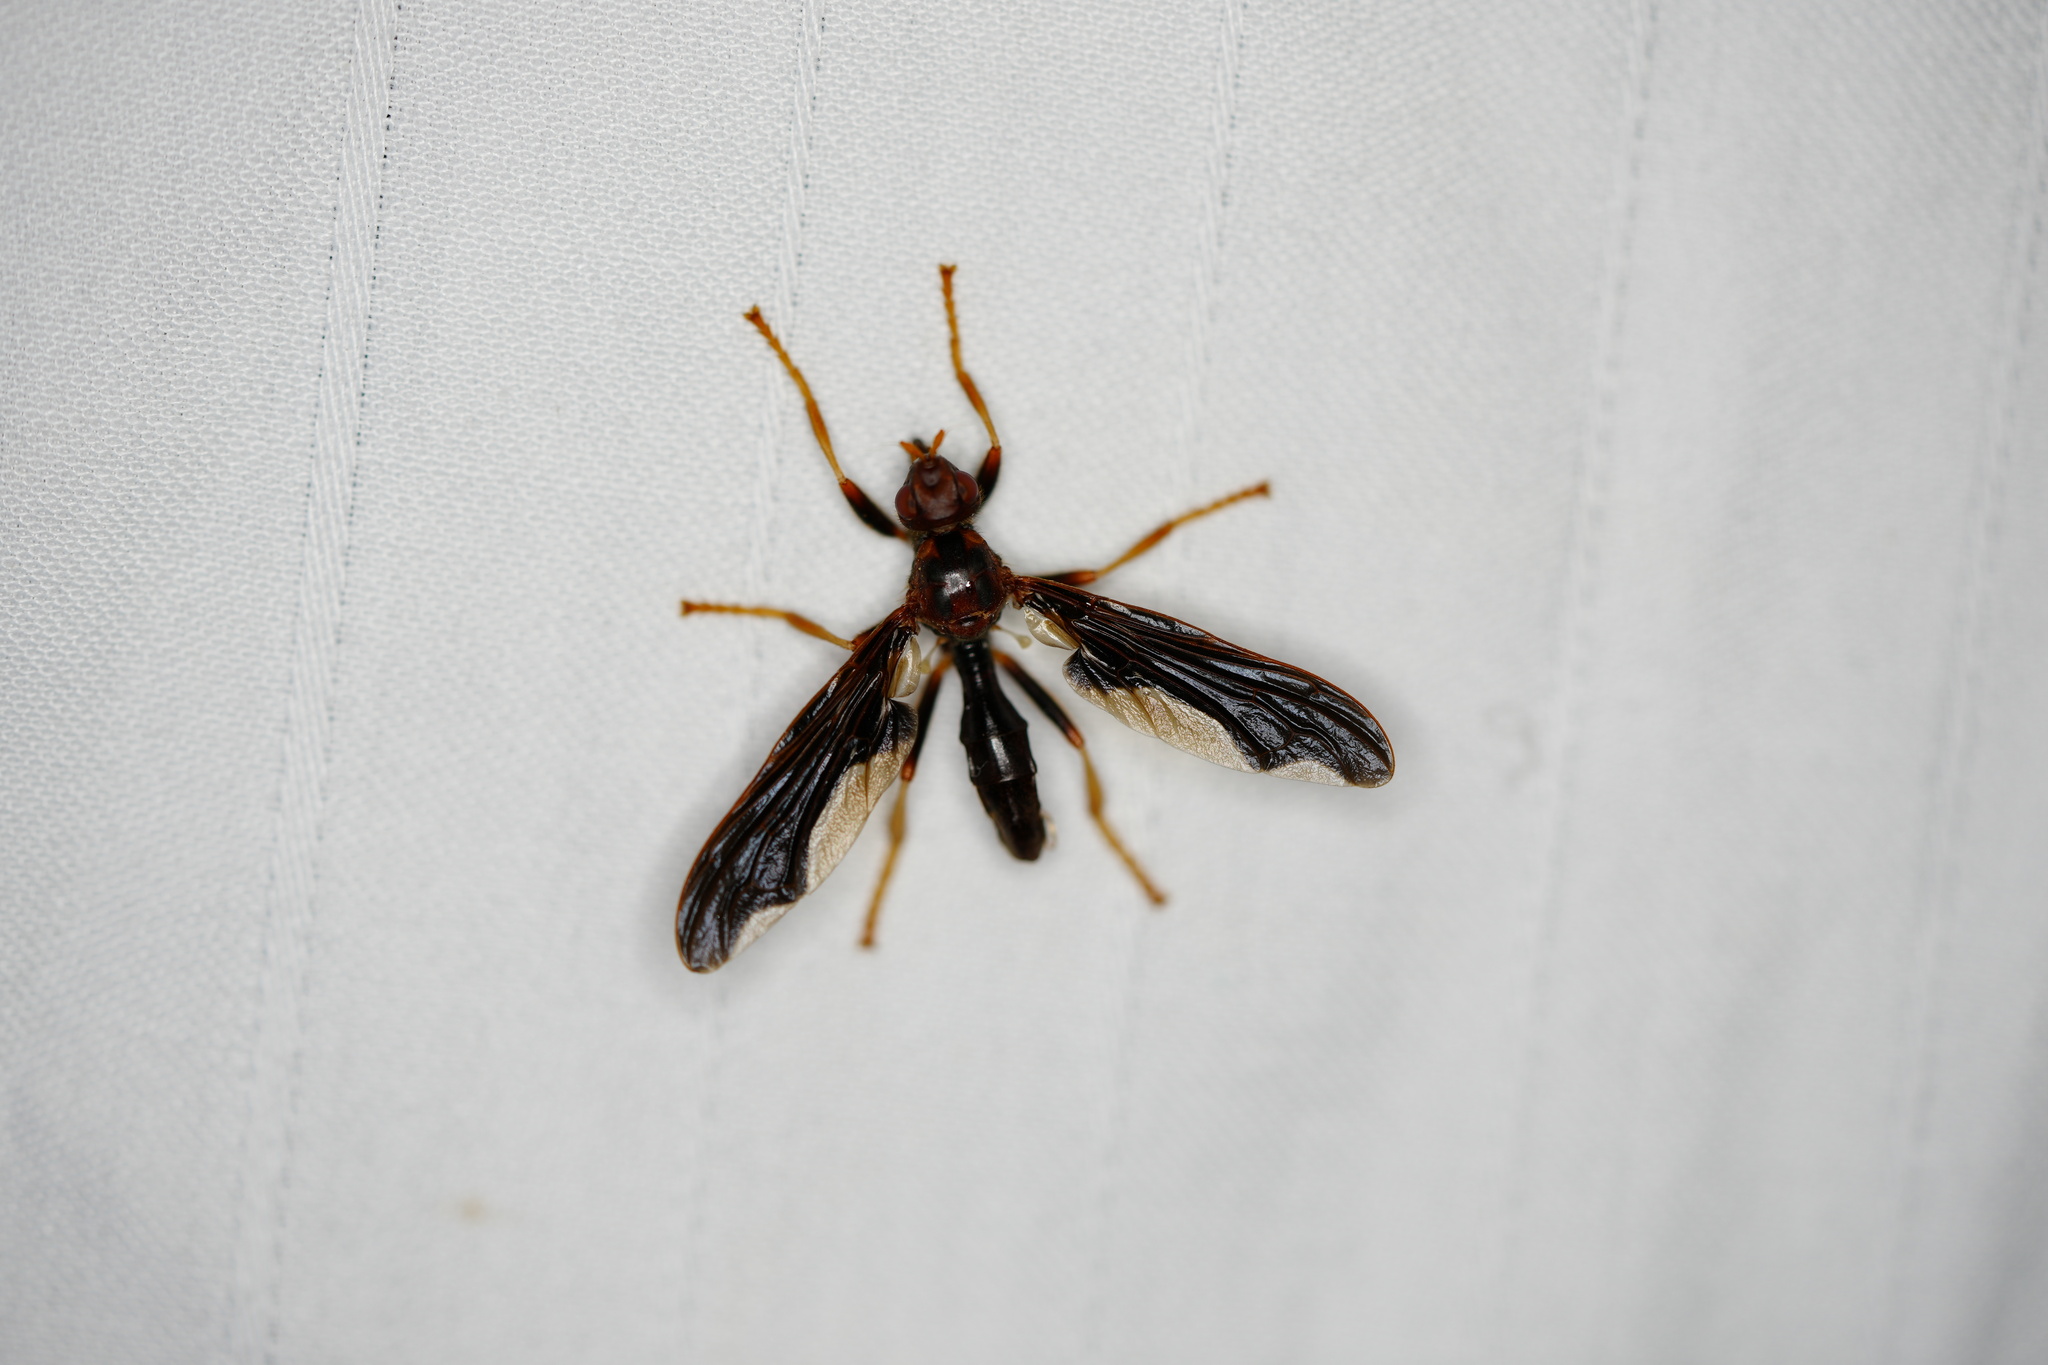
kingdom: Animalia
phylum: Arthropoda
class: Insecta
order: Diptera
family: Pyrgotidae
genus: Pyrgota
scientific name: Pyrgota undata
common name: Waved light fly
